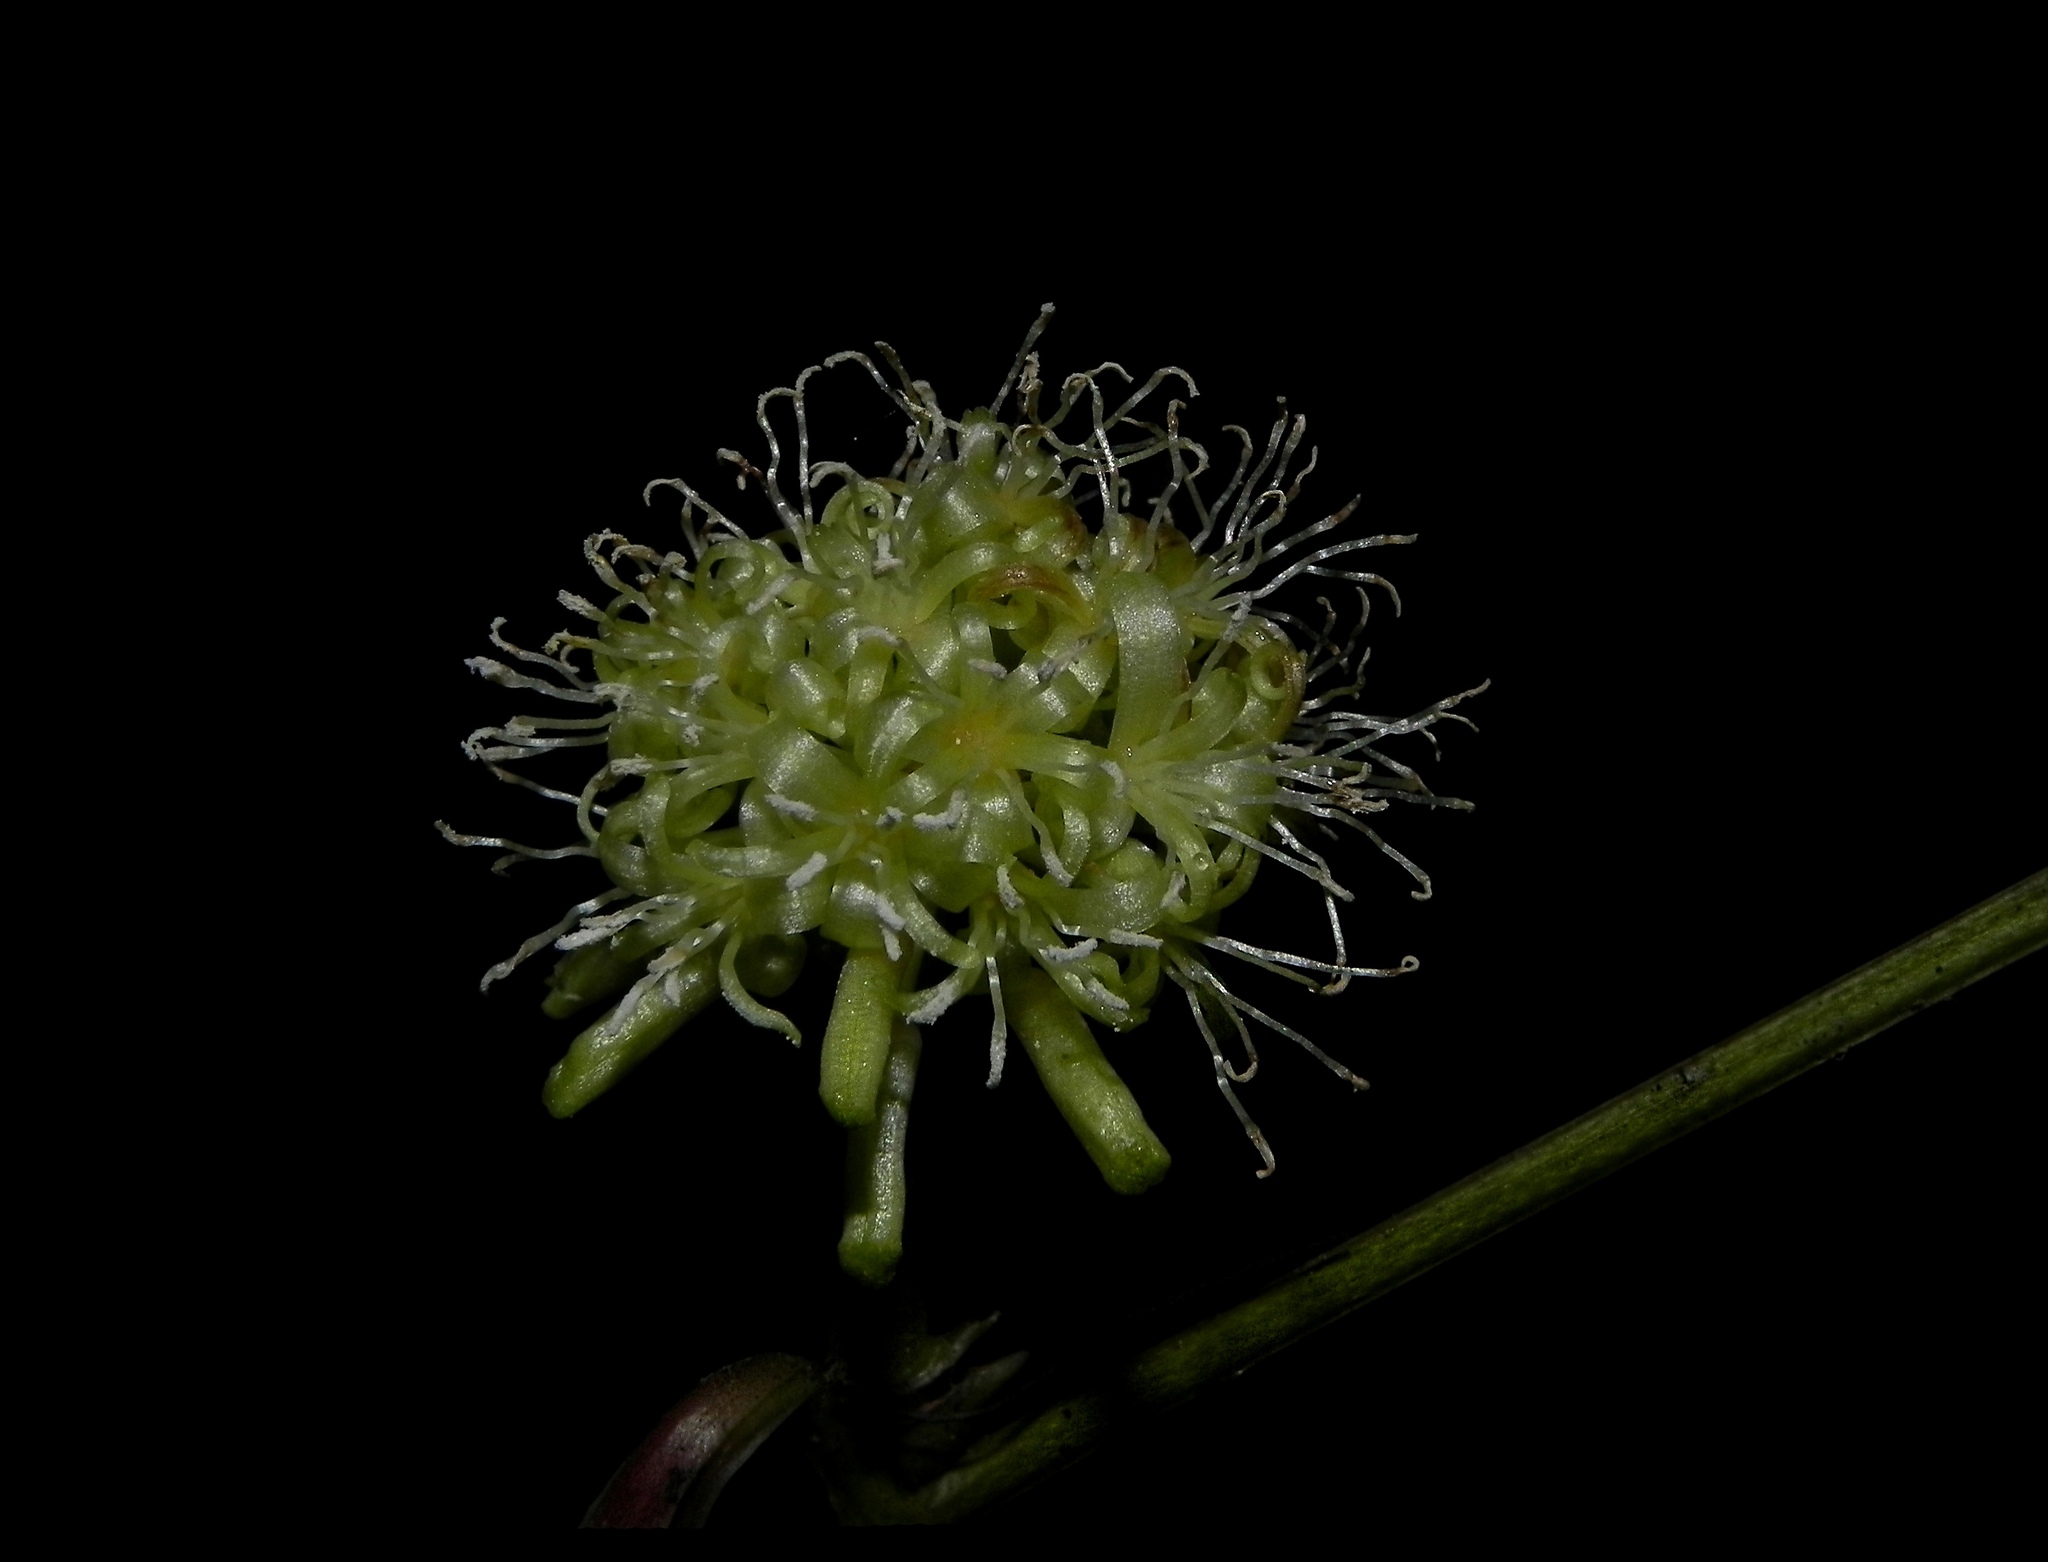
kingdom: Plantae
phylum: Tracheophyta
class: Liliopsida
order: Liliales
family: Smilacaceae
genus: Smilax
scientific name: Smilax ovalifolia
